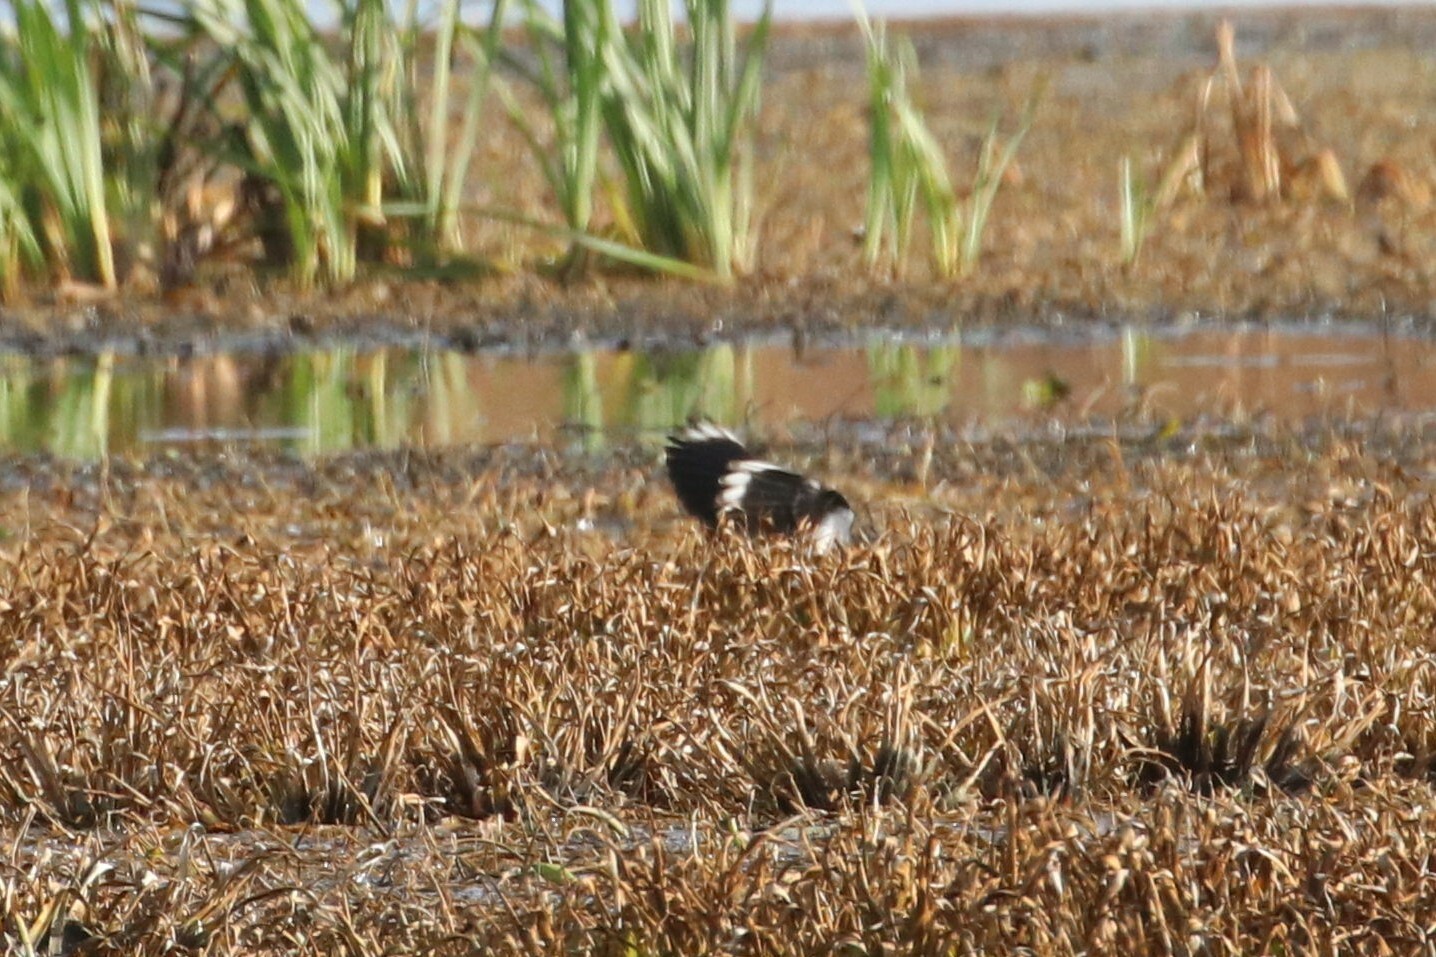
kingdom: Animalia
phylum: Chordata
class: Aves
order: Charadriiformes
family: Charadriidae
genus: Vanellus
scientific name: Vanellus vanellus
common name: Northern lapwing
